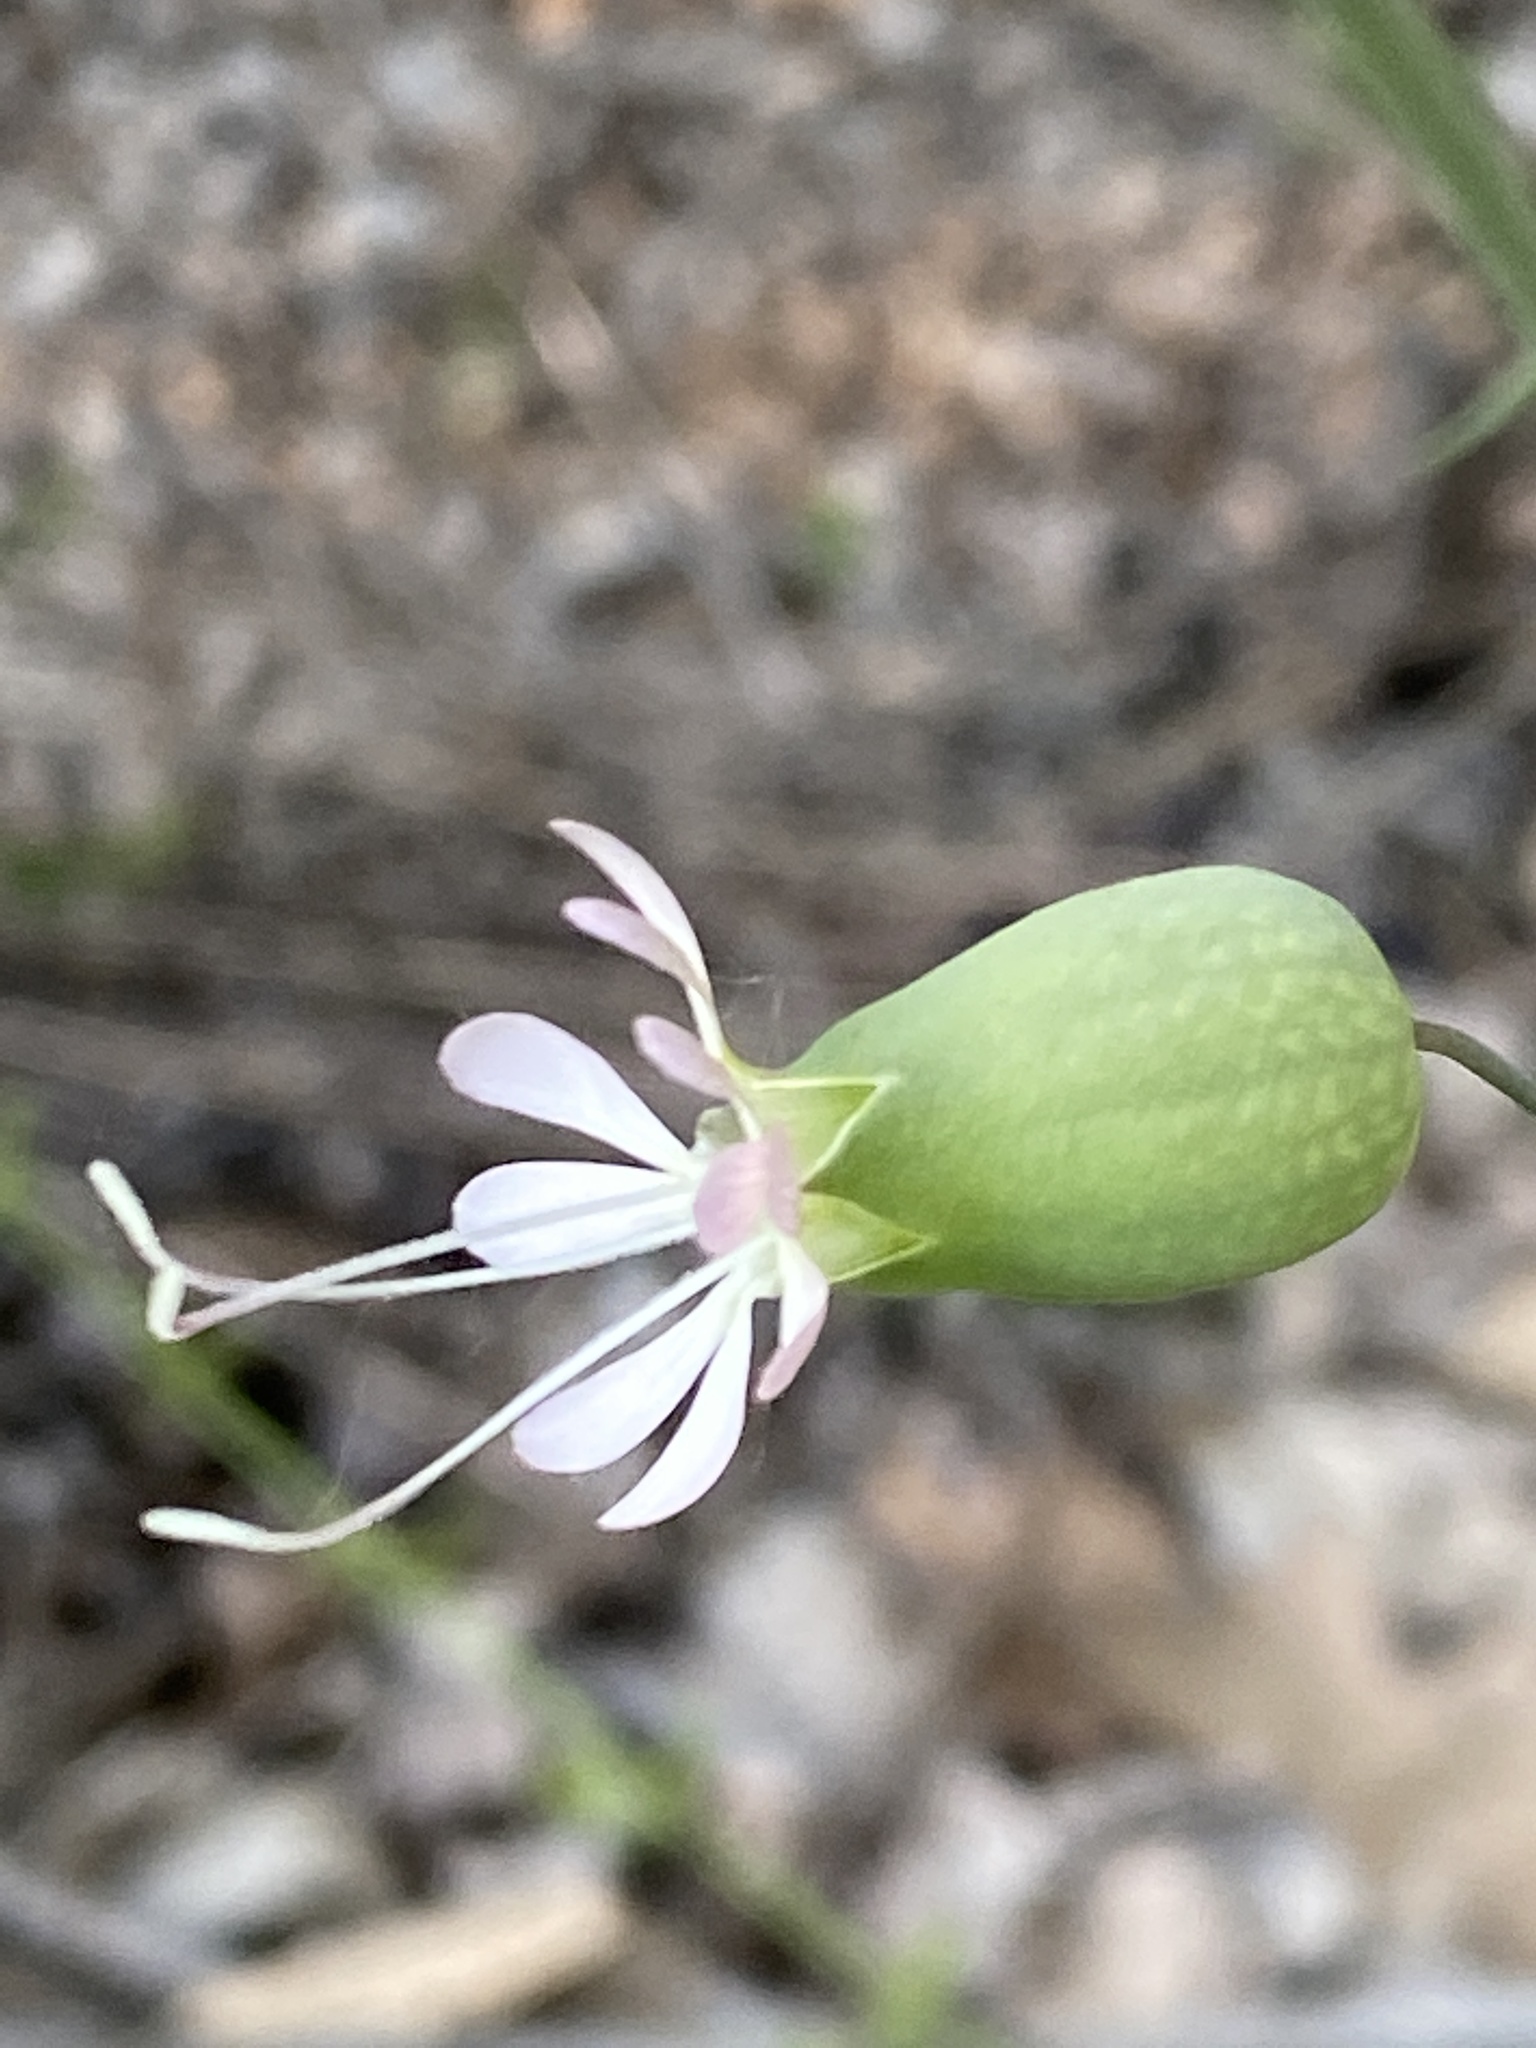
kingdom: Plantae
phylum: Tracheophyta
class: Magnoliopsida
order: Caryophyllales
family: Caryophyllaceae
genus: Silene
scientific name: Silene vulgaris
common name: Bladder campion
